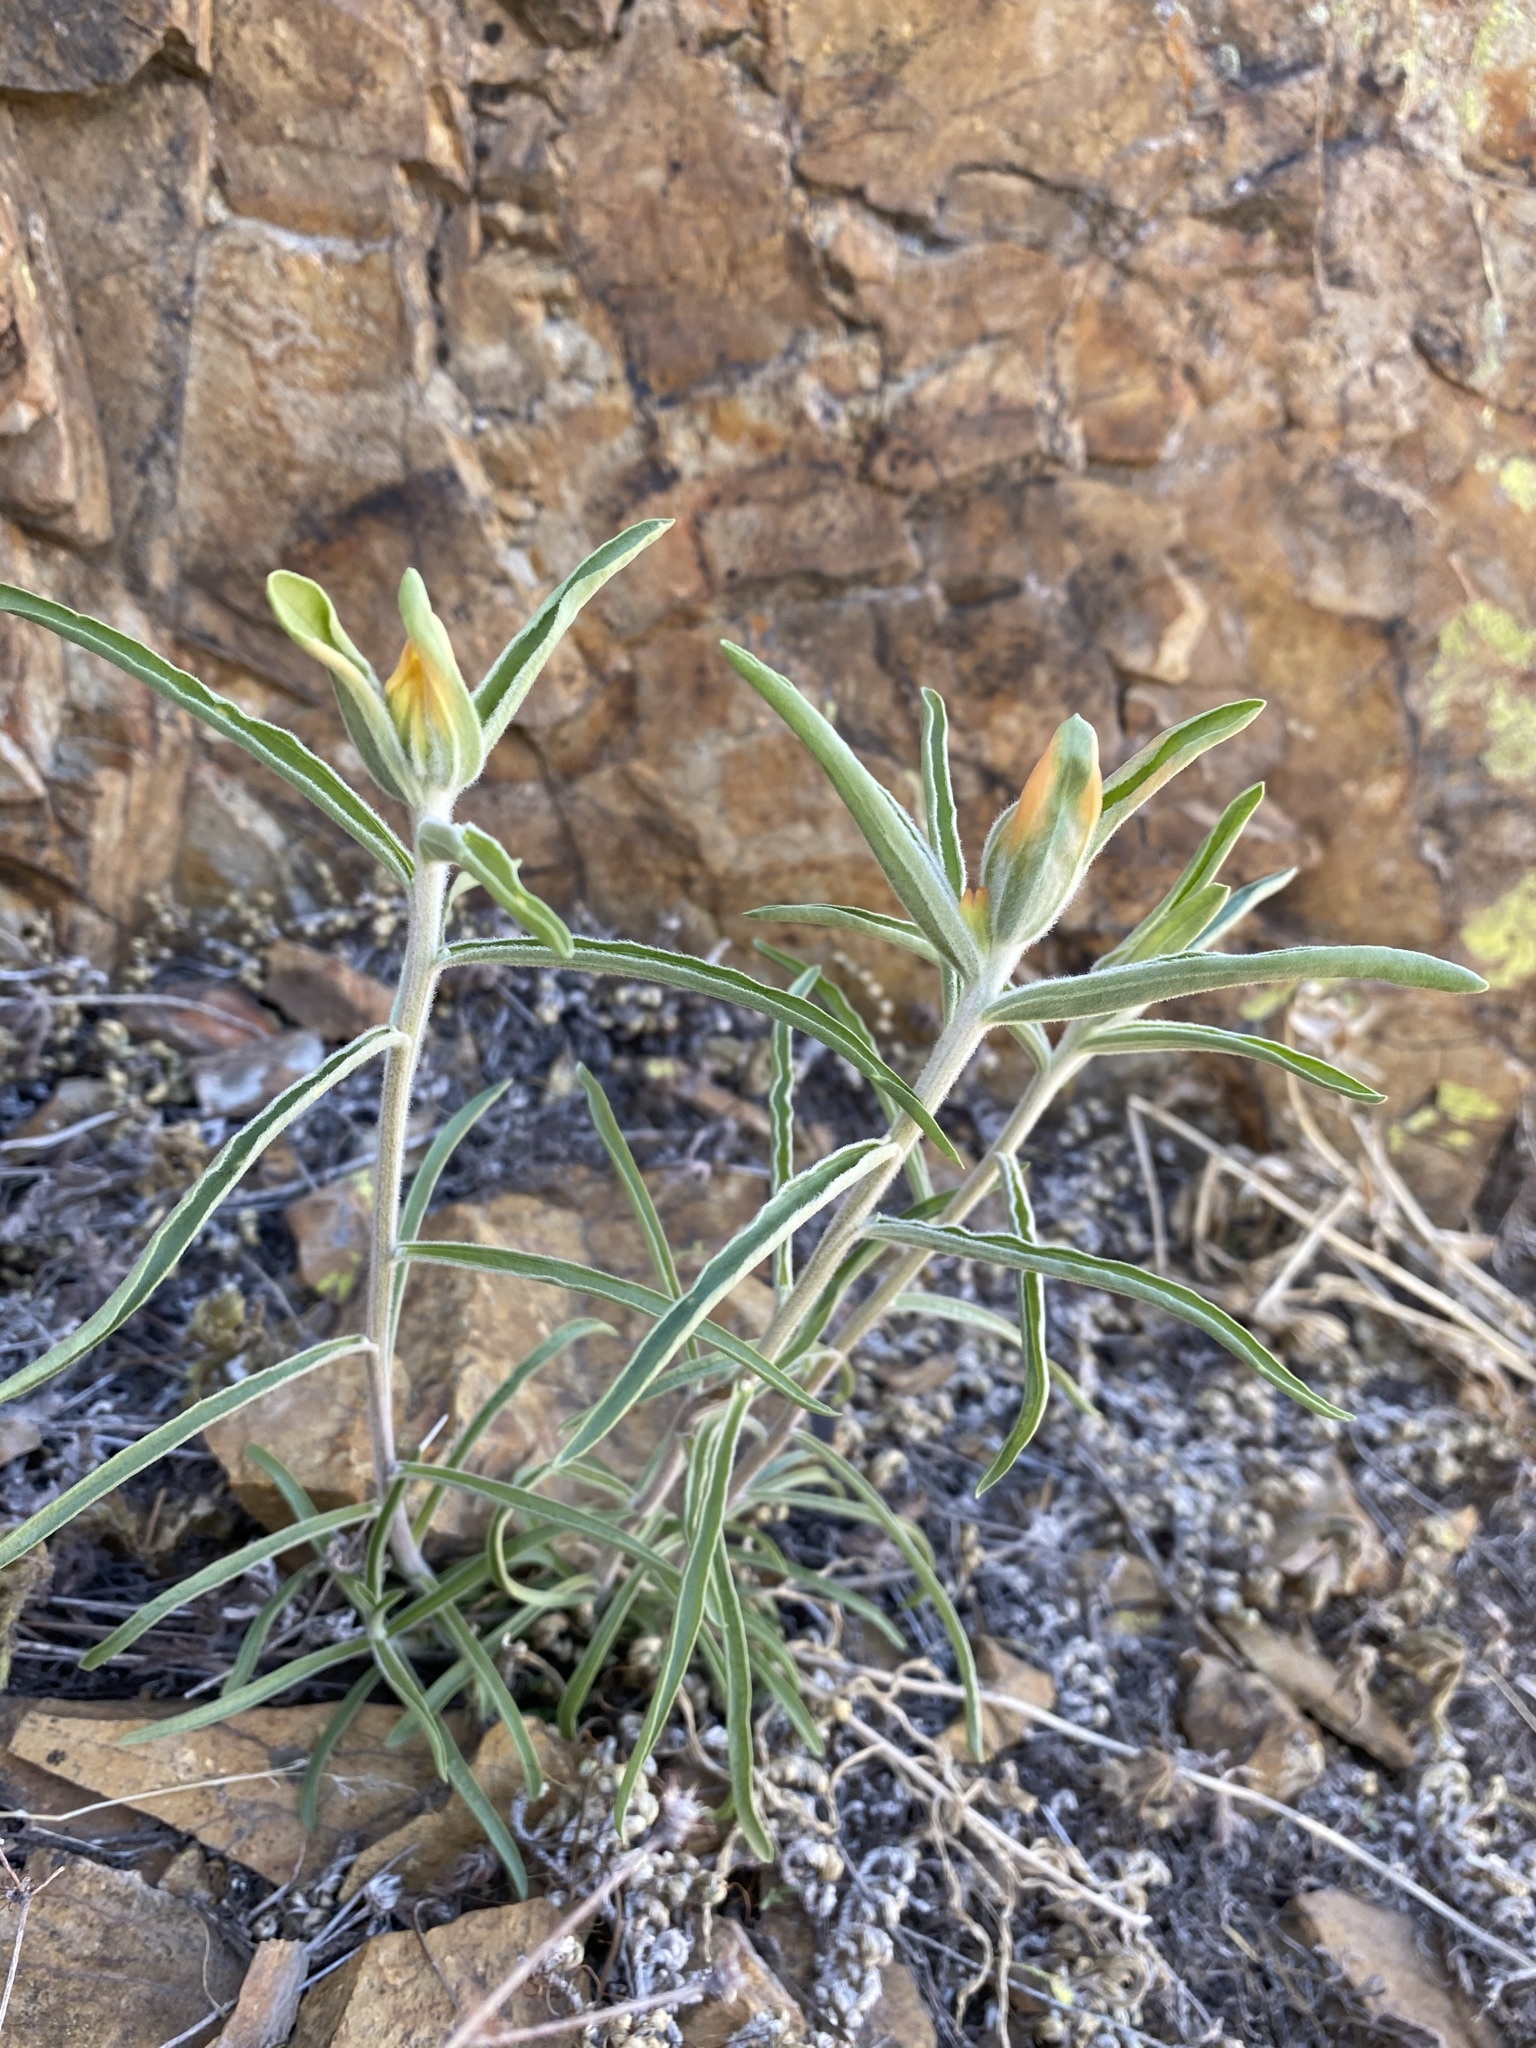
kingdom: Plantae
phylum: Tracheophyta
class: Magnoliopsida
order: Lamiales
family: Orobanchaceae
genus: Castilleja
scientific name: Castilleja integra
